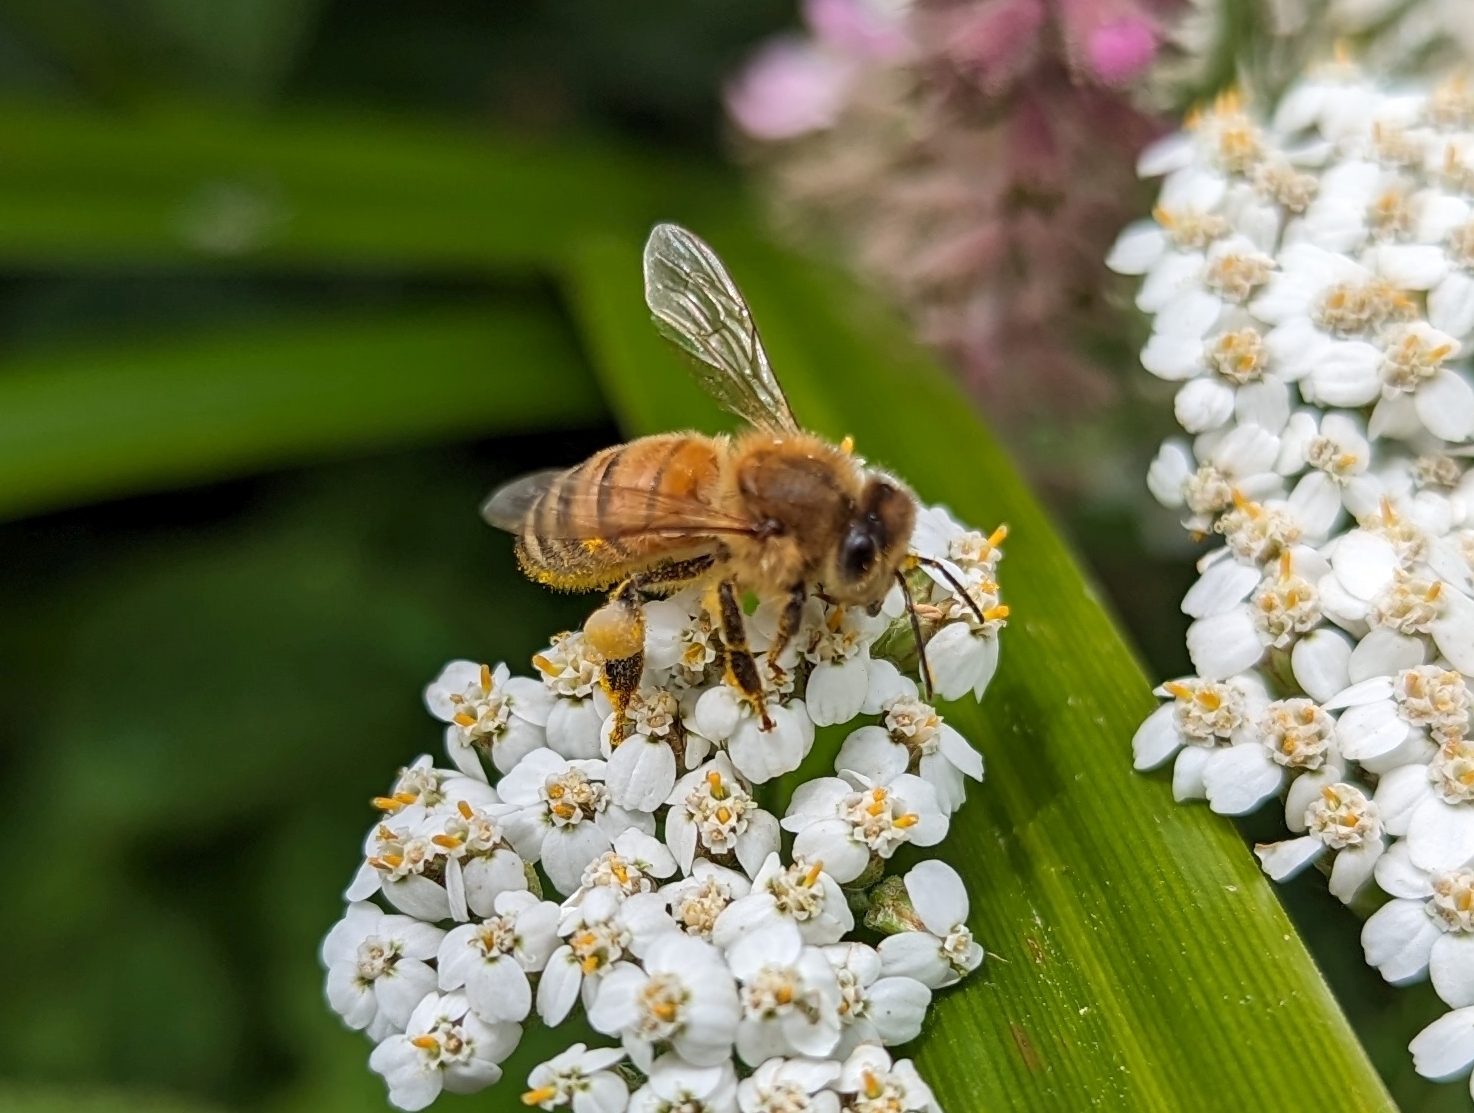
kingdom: Animalia
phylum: Arthropoda
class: Insecta
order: Hymenoptera
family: Apidae
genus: Apis
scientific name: Apis mellifera
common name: Honey bee
